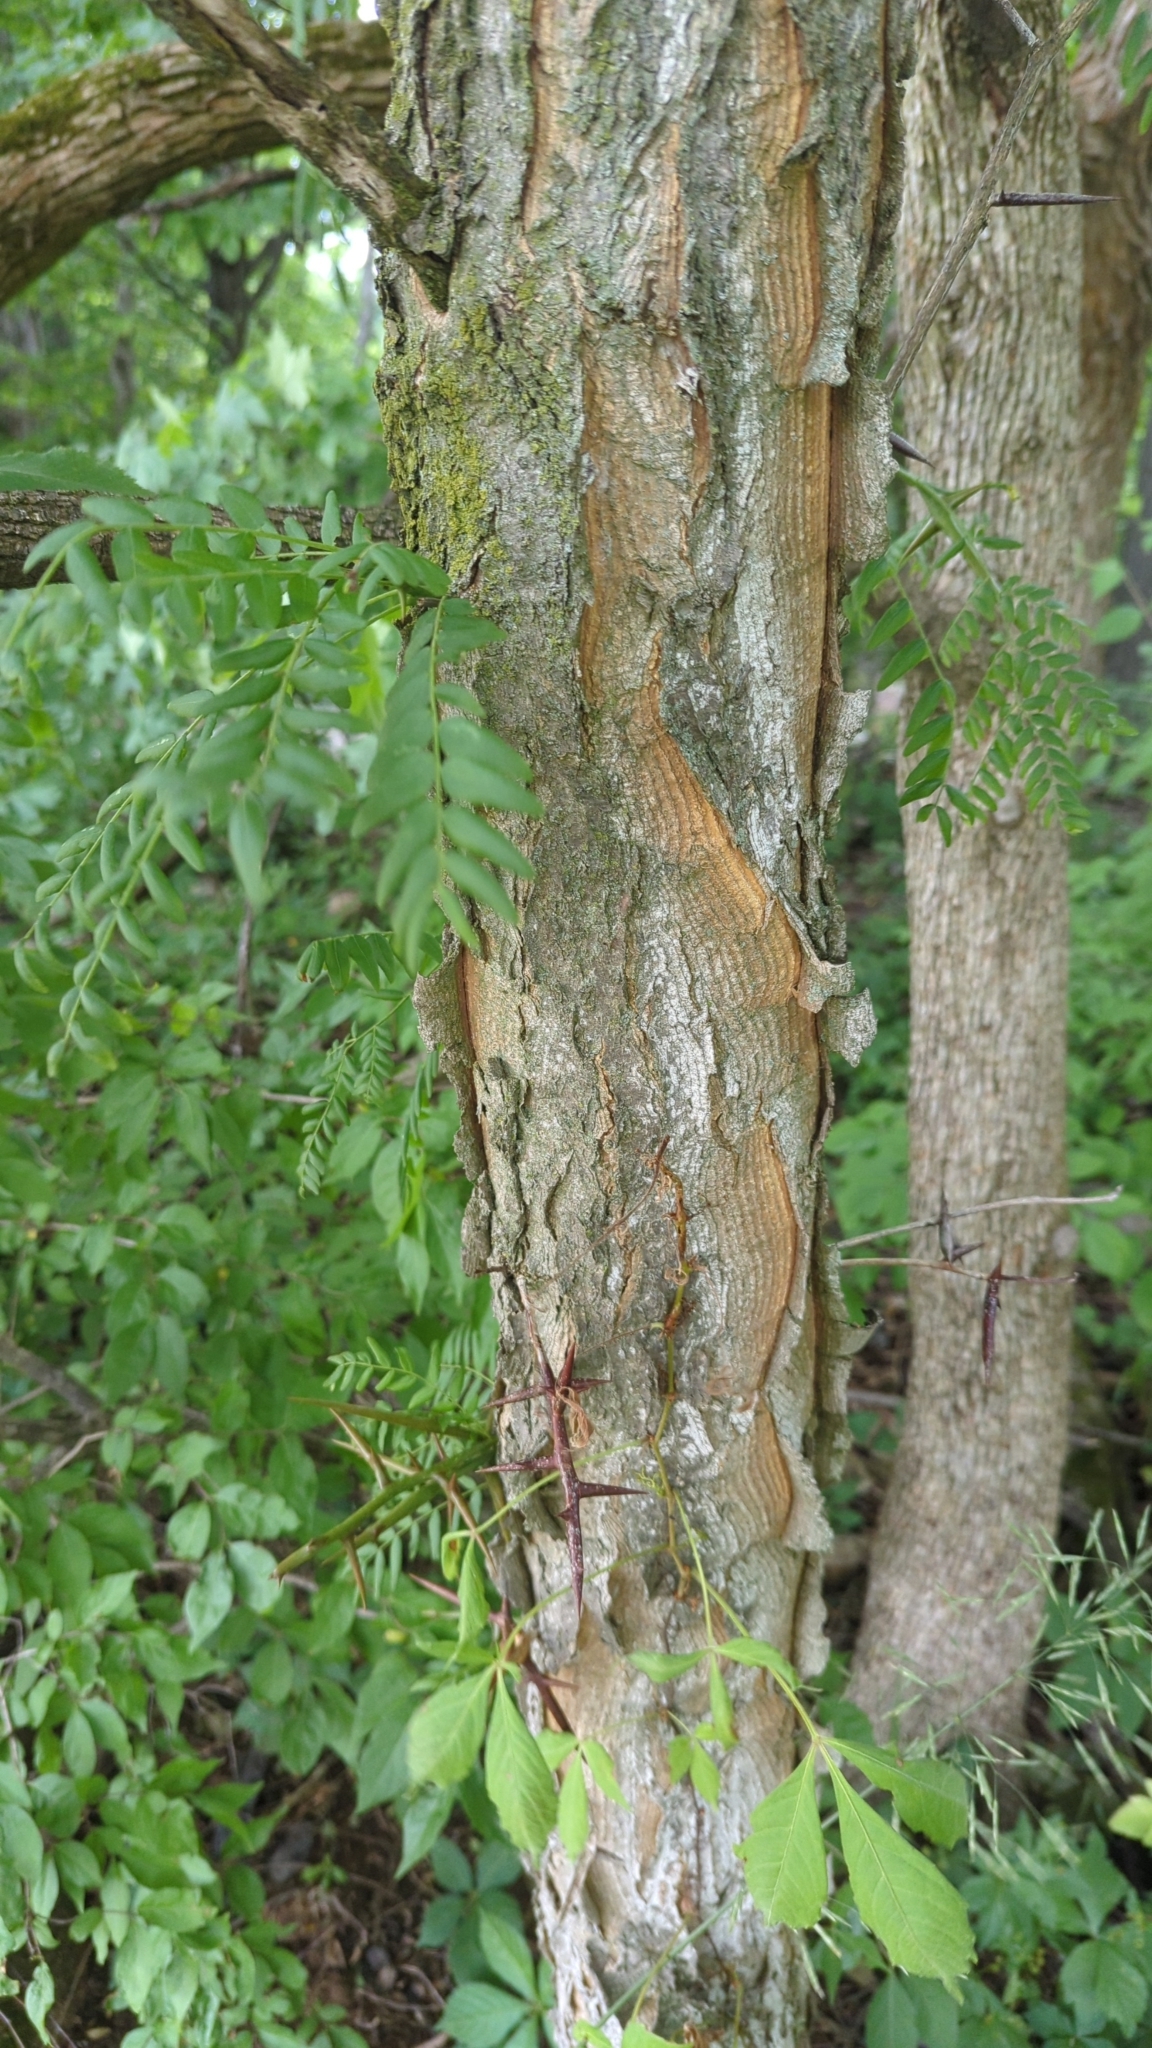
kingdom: Plantae
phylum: Tracheophyta
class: Magnoliopsida
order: Fabales
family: Fabaceae
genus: Gleditsia
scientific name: Gleditsia triacanthos
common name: Common honeylocust
